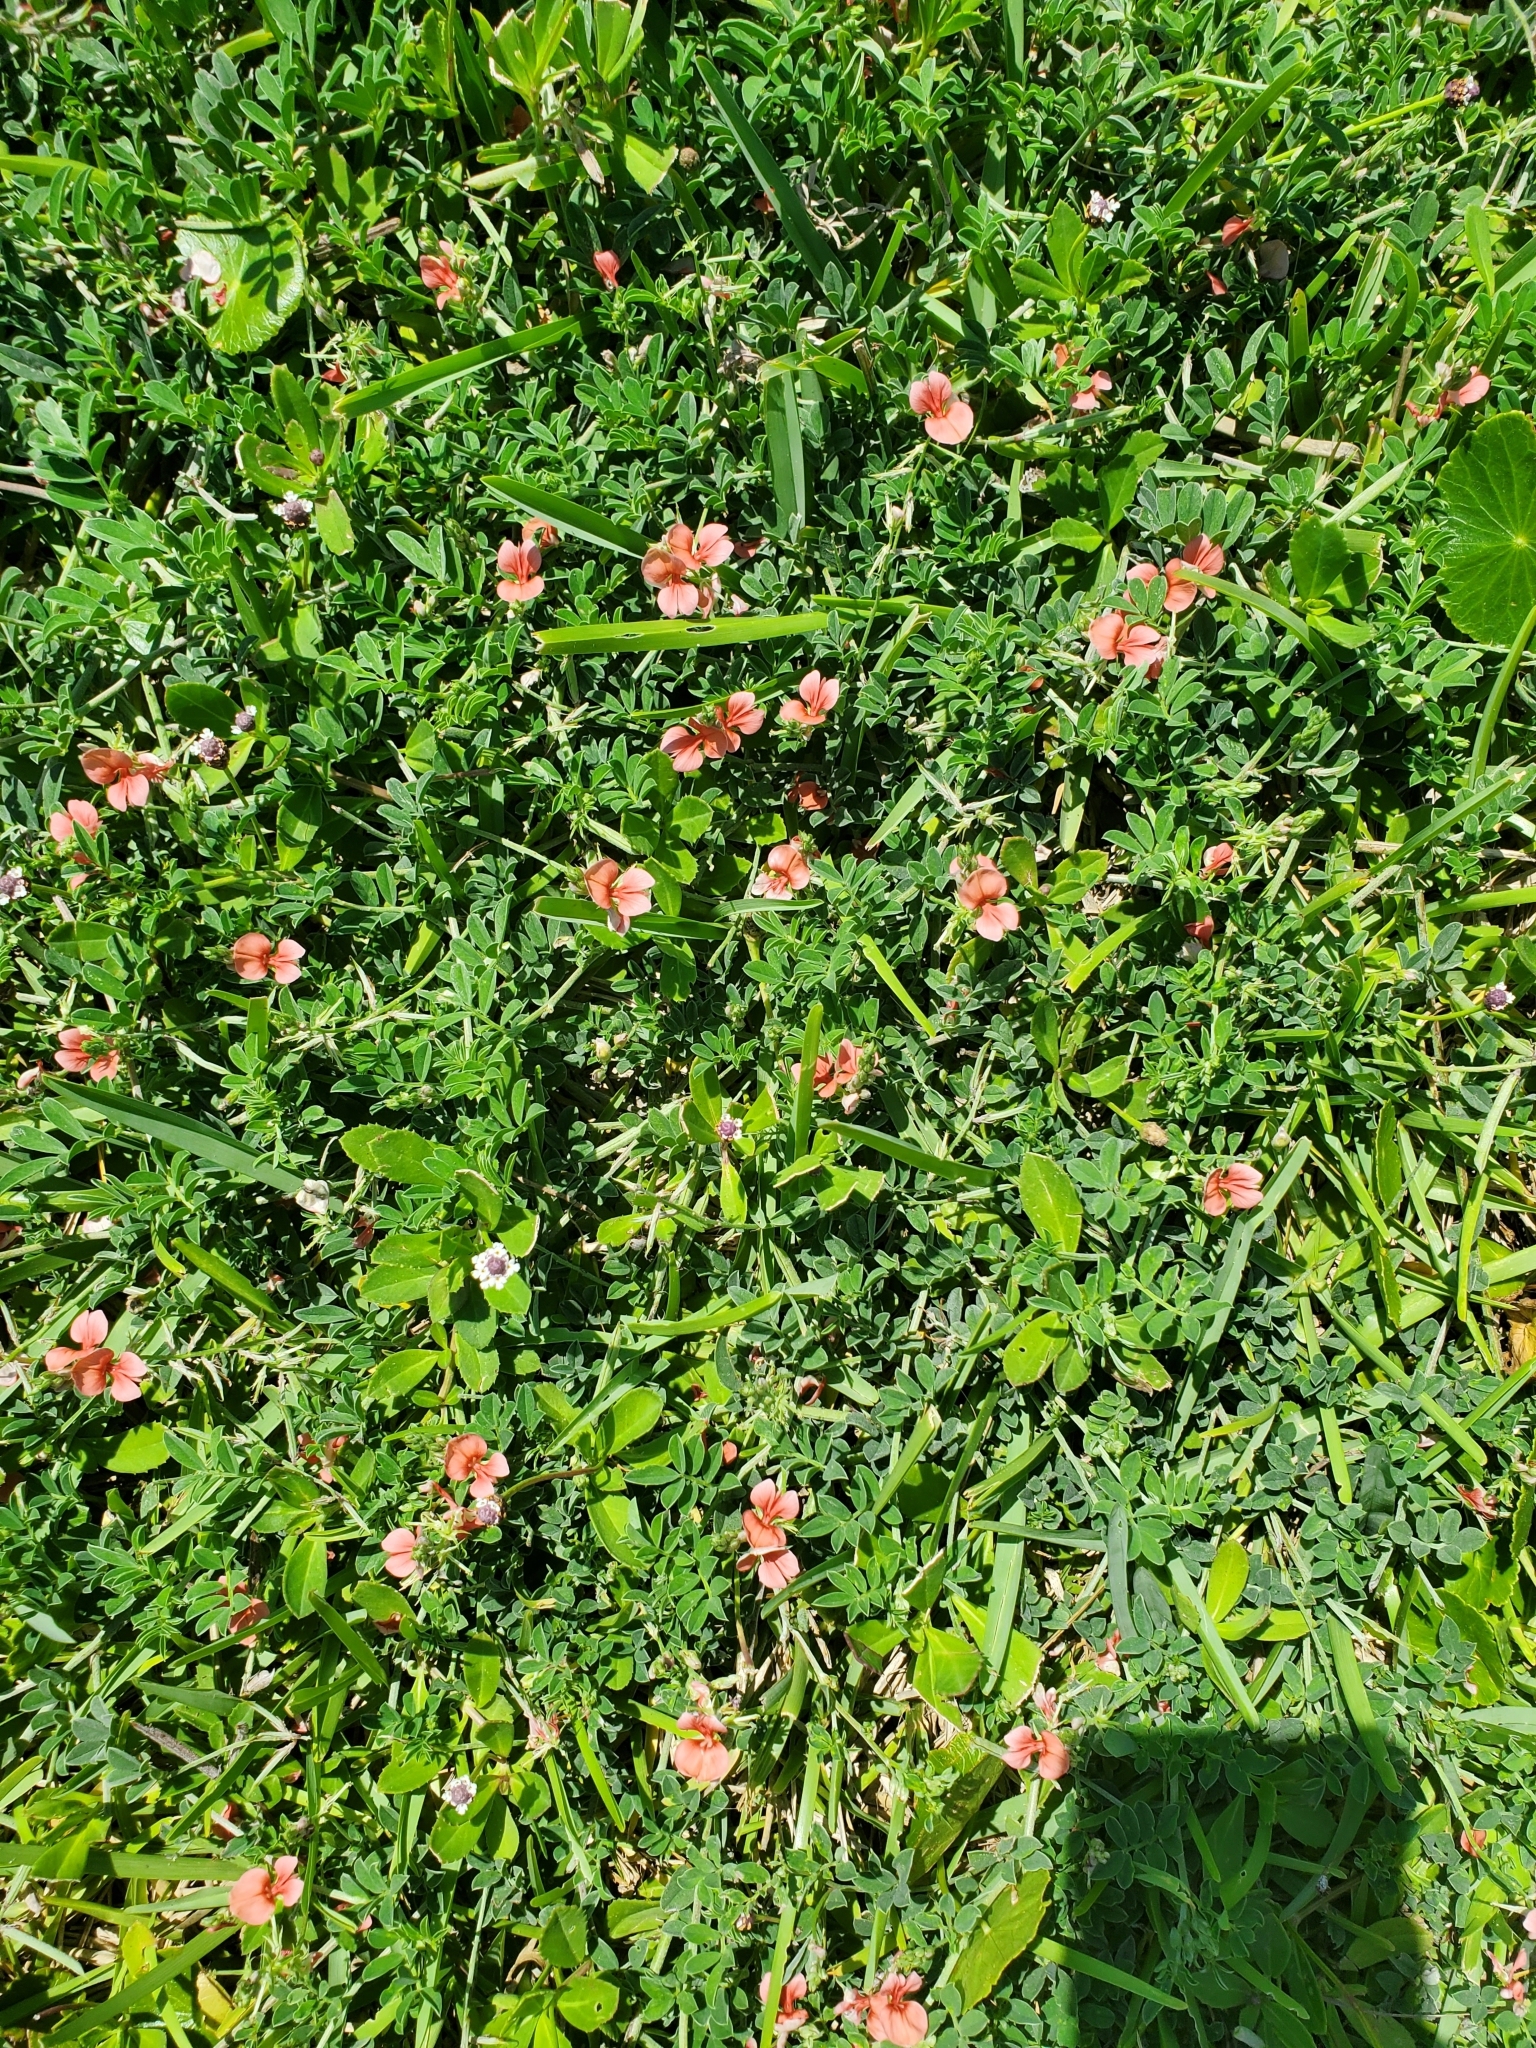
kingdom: Plantae
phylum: Tracheophyta
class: Magnoliopsida
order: Fabales
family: Fabaceae
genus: Indigofera
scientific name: Indigofera miniata
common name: Coast indigo
